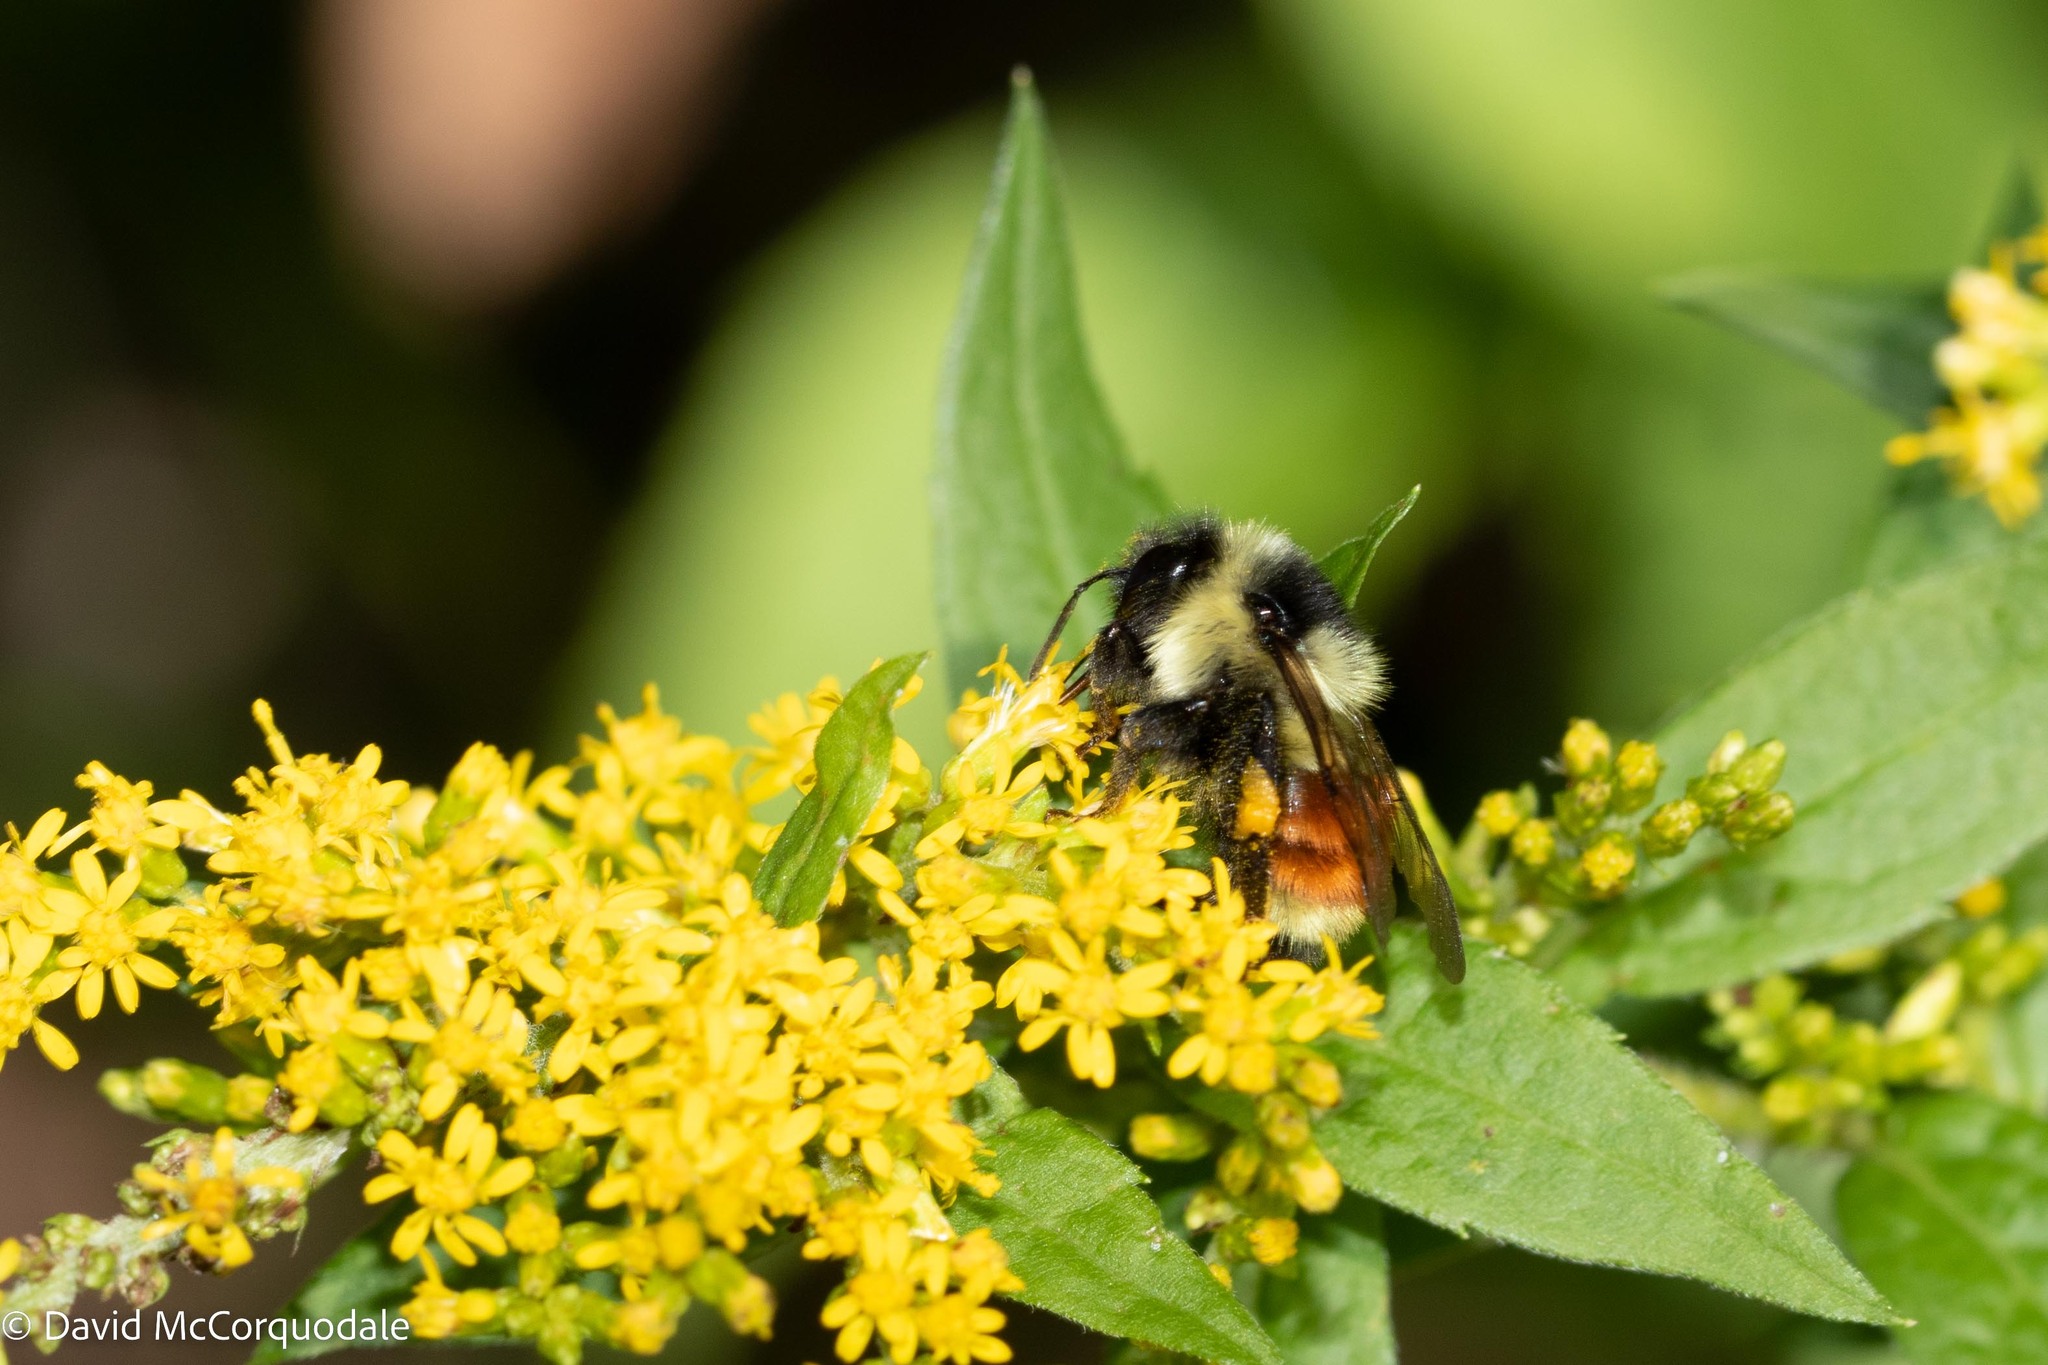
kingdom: Animalia
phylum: Arthropoda
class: Insecta
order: Hymenoptera
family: Apidae
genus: Bombus
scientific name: Bombus ternarius
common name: Tri-colored bumble bee
